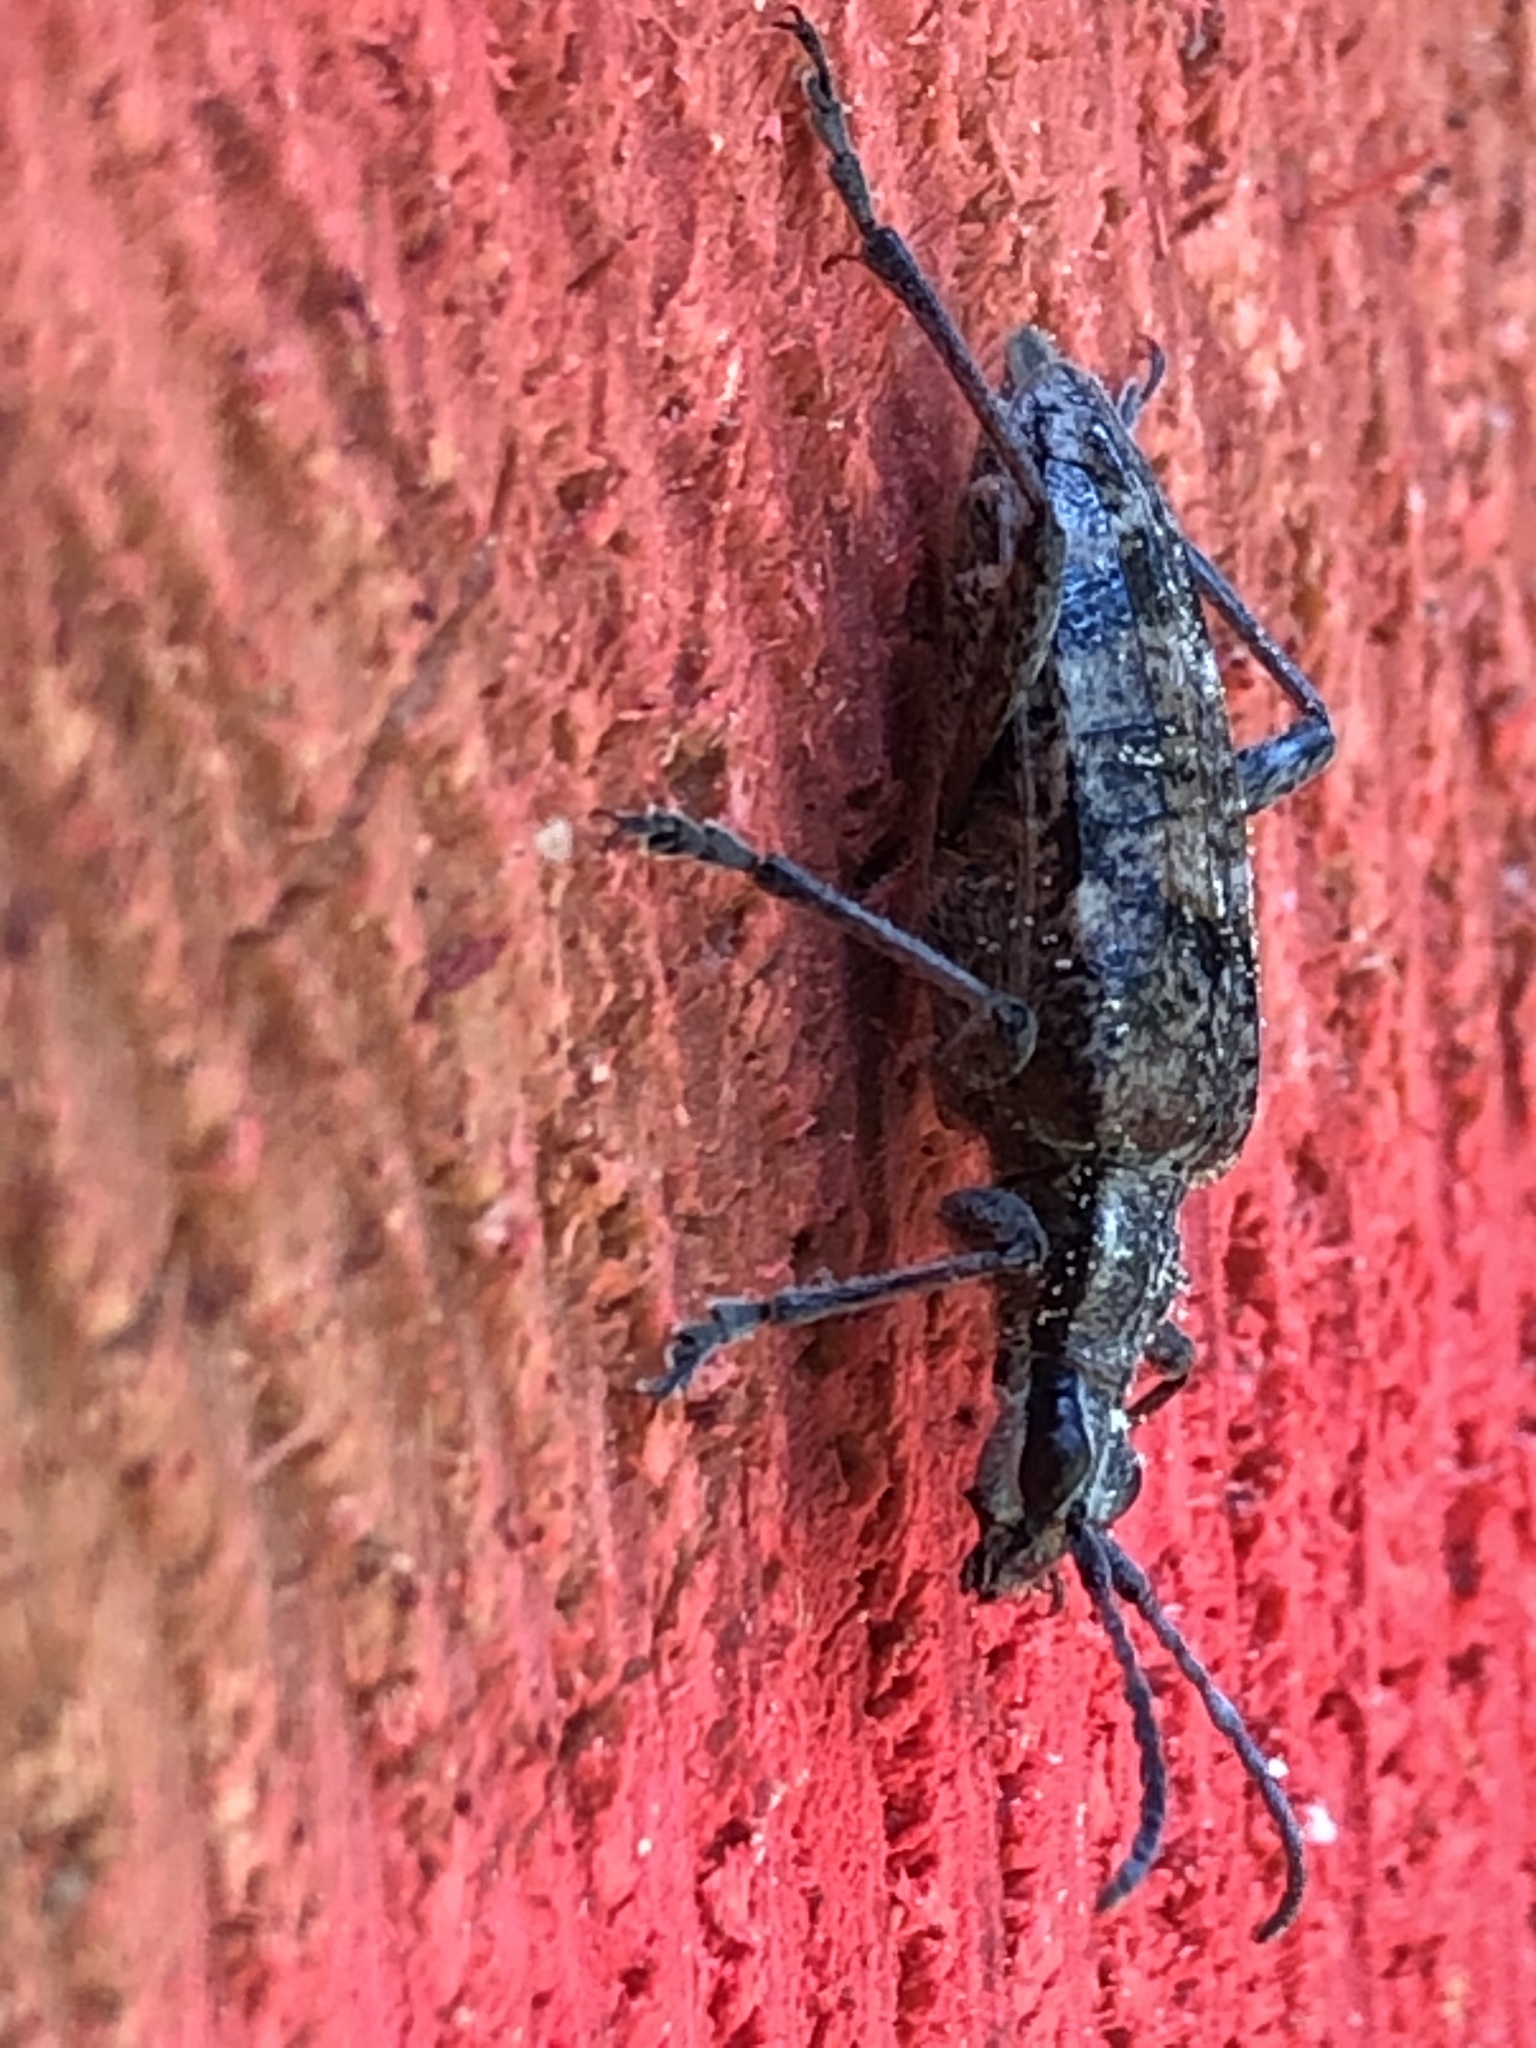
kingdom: Animalia
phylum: Arthropoda
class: Insecta
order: Coleoptera
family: Cerambycidae
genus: Rhagium
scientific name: Rhagium inquisitor
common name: Ribbed pine borer
